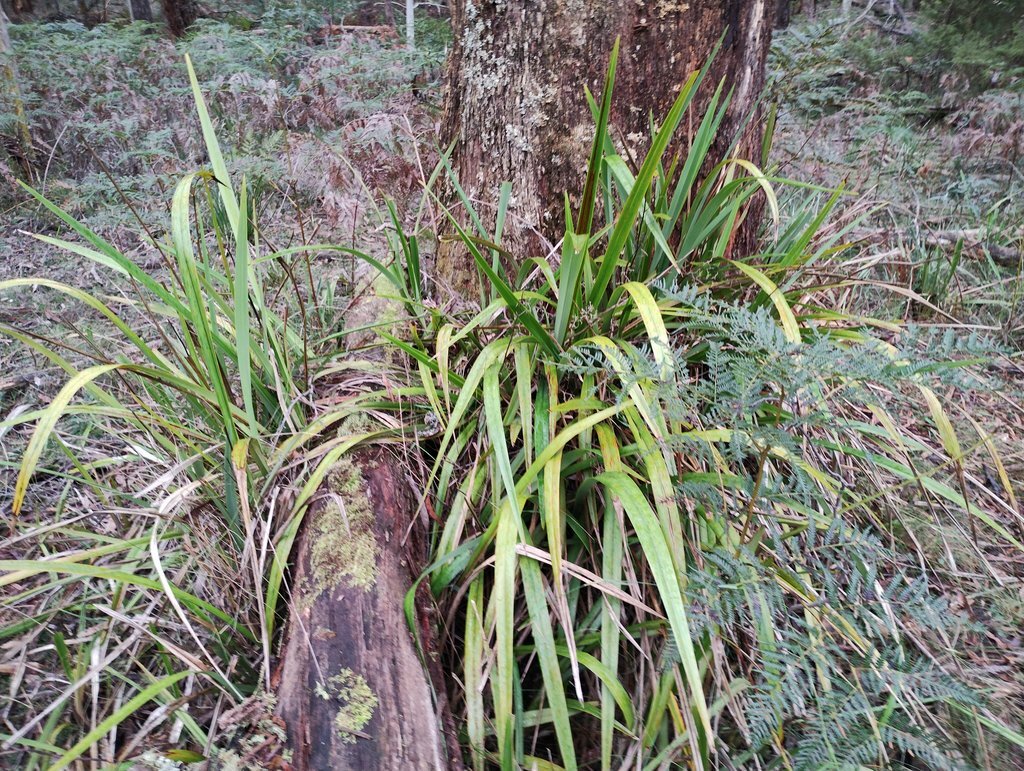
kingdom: Plantae
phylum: Tracheophyta
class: Liliopsida
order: Asparagales
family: Asphodelaceae
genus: Dianella
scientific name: Dianella tasmanica
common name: Tasman flax-lily
